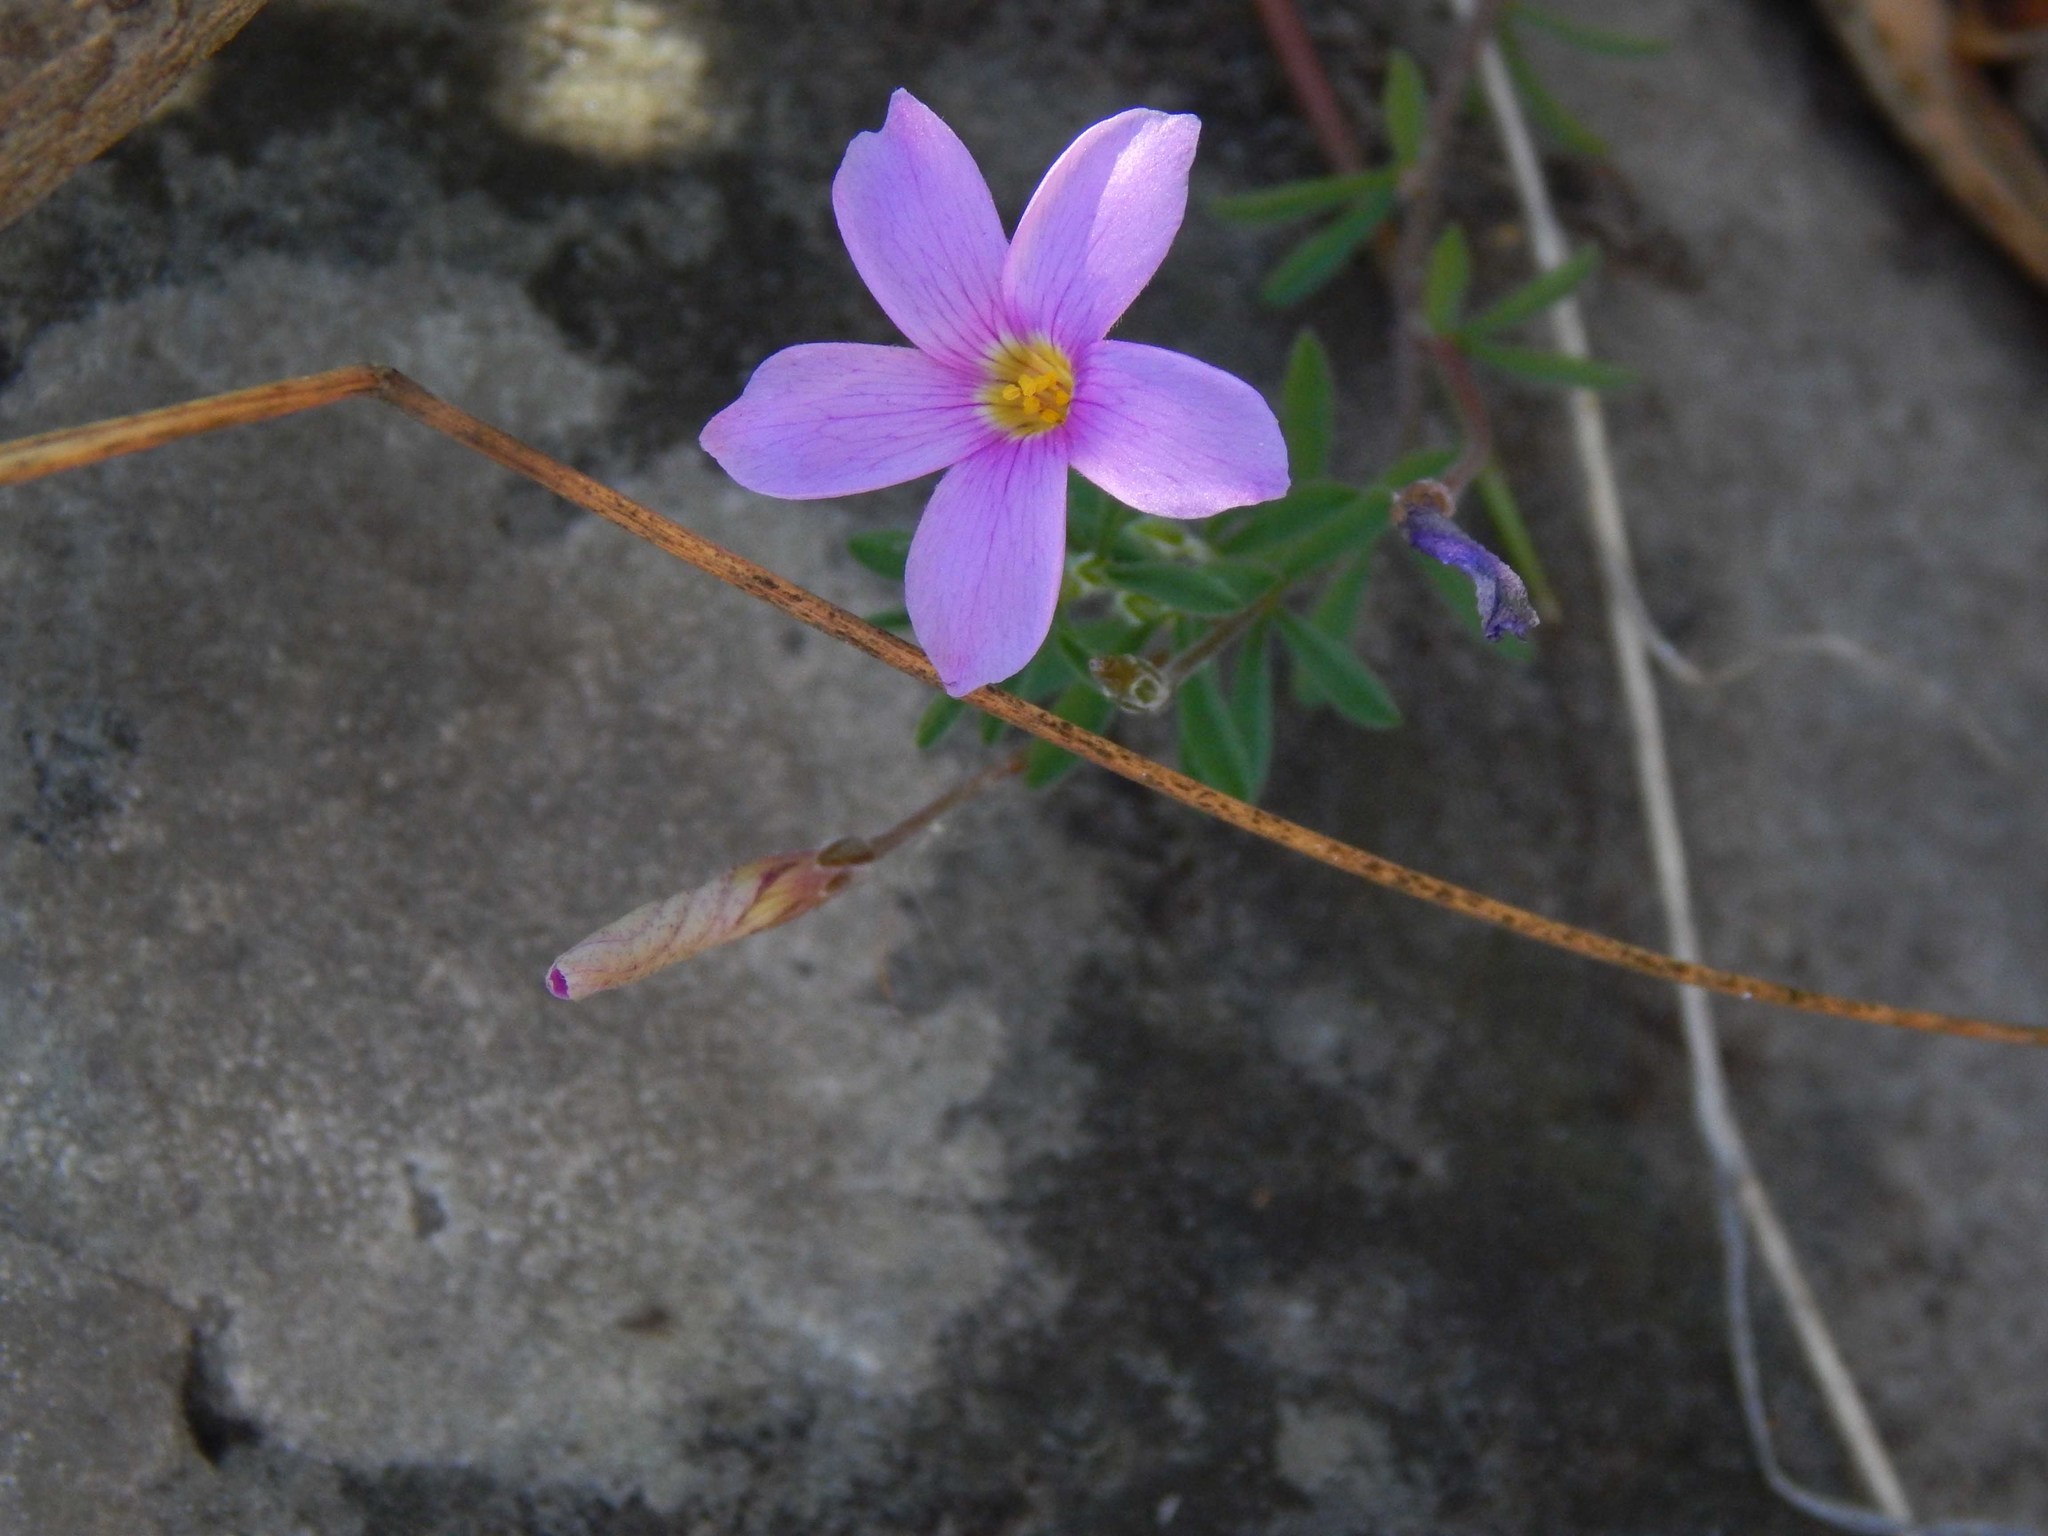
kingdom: Plantae
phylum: Tracheophyta
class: Magnoliopsida
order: Oxalidales
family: Oxalidaceae
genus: Oxalis
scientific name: Oxalis hirta
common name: Tropical woodsorrel
